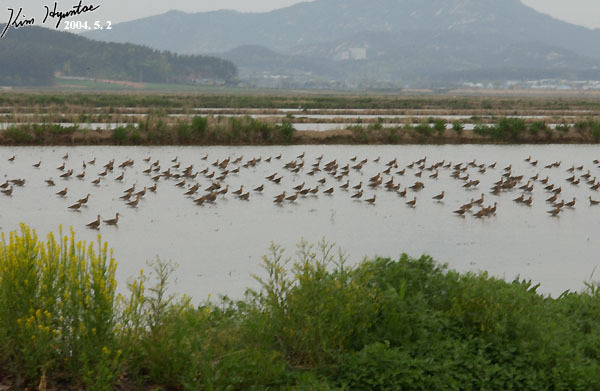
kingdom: Animalia
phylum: Chordata
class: Aves
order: Charadriiformes
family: Scolopacidae
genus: Limosa
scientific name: Limosa limosa
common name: Black-tailed godwit
